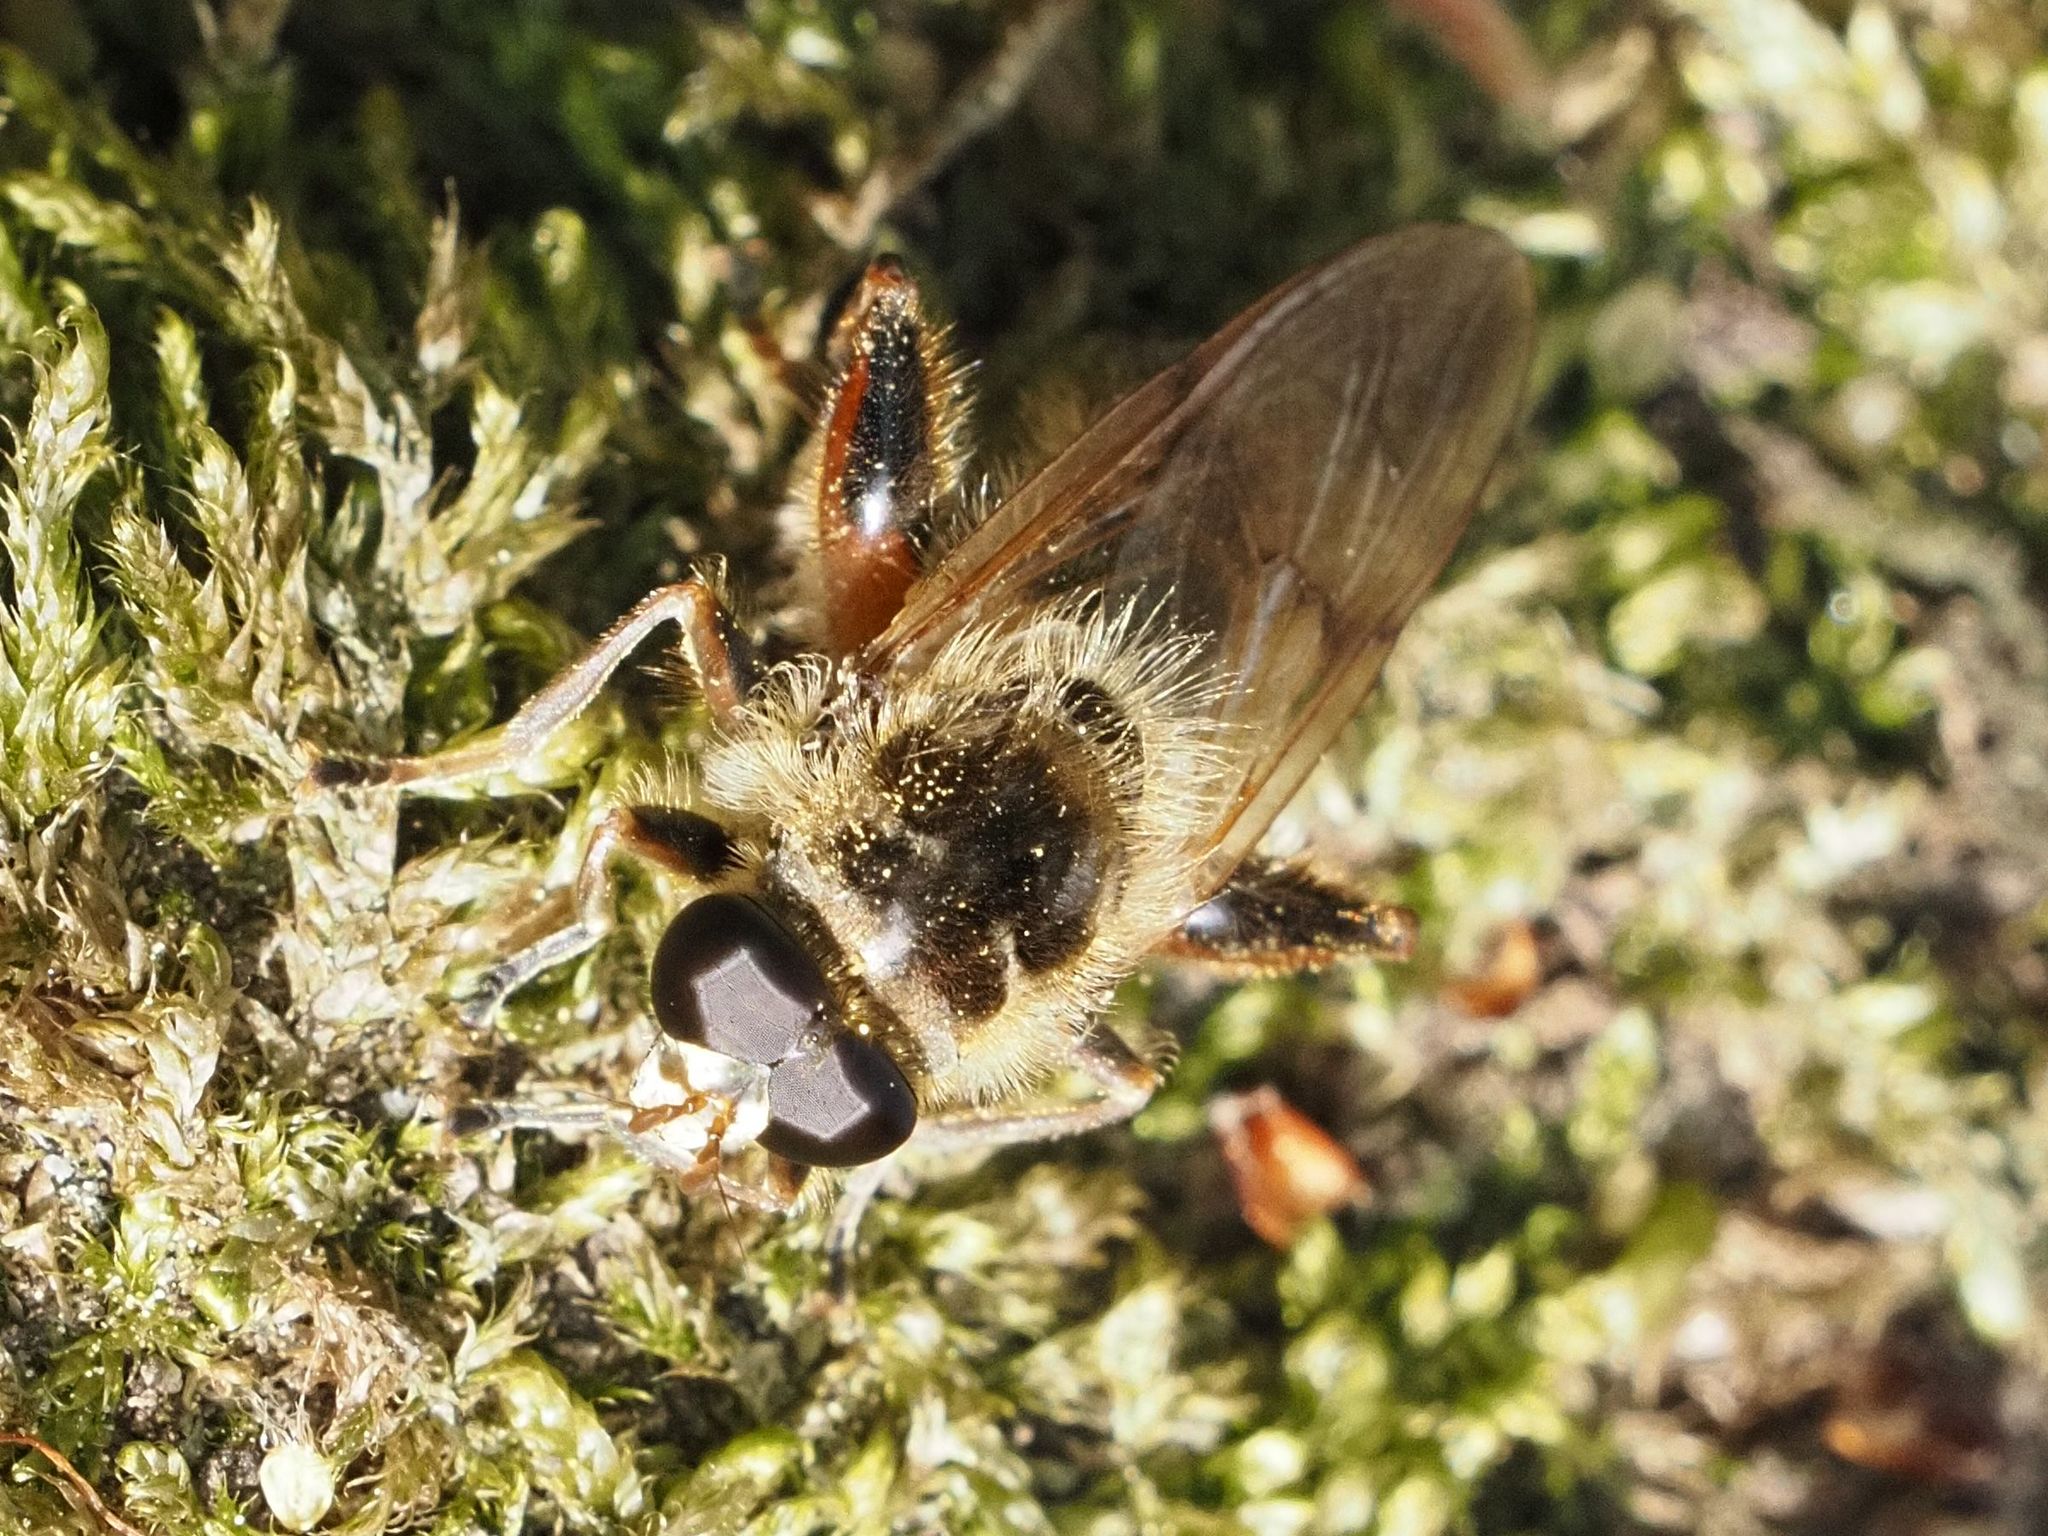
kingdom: Animalia
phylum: Arthropoda
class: Insecta
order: Diptera
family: Syrphidae
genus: Brachypalpus
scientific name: Brachypalpus valgus
